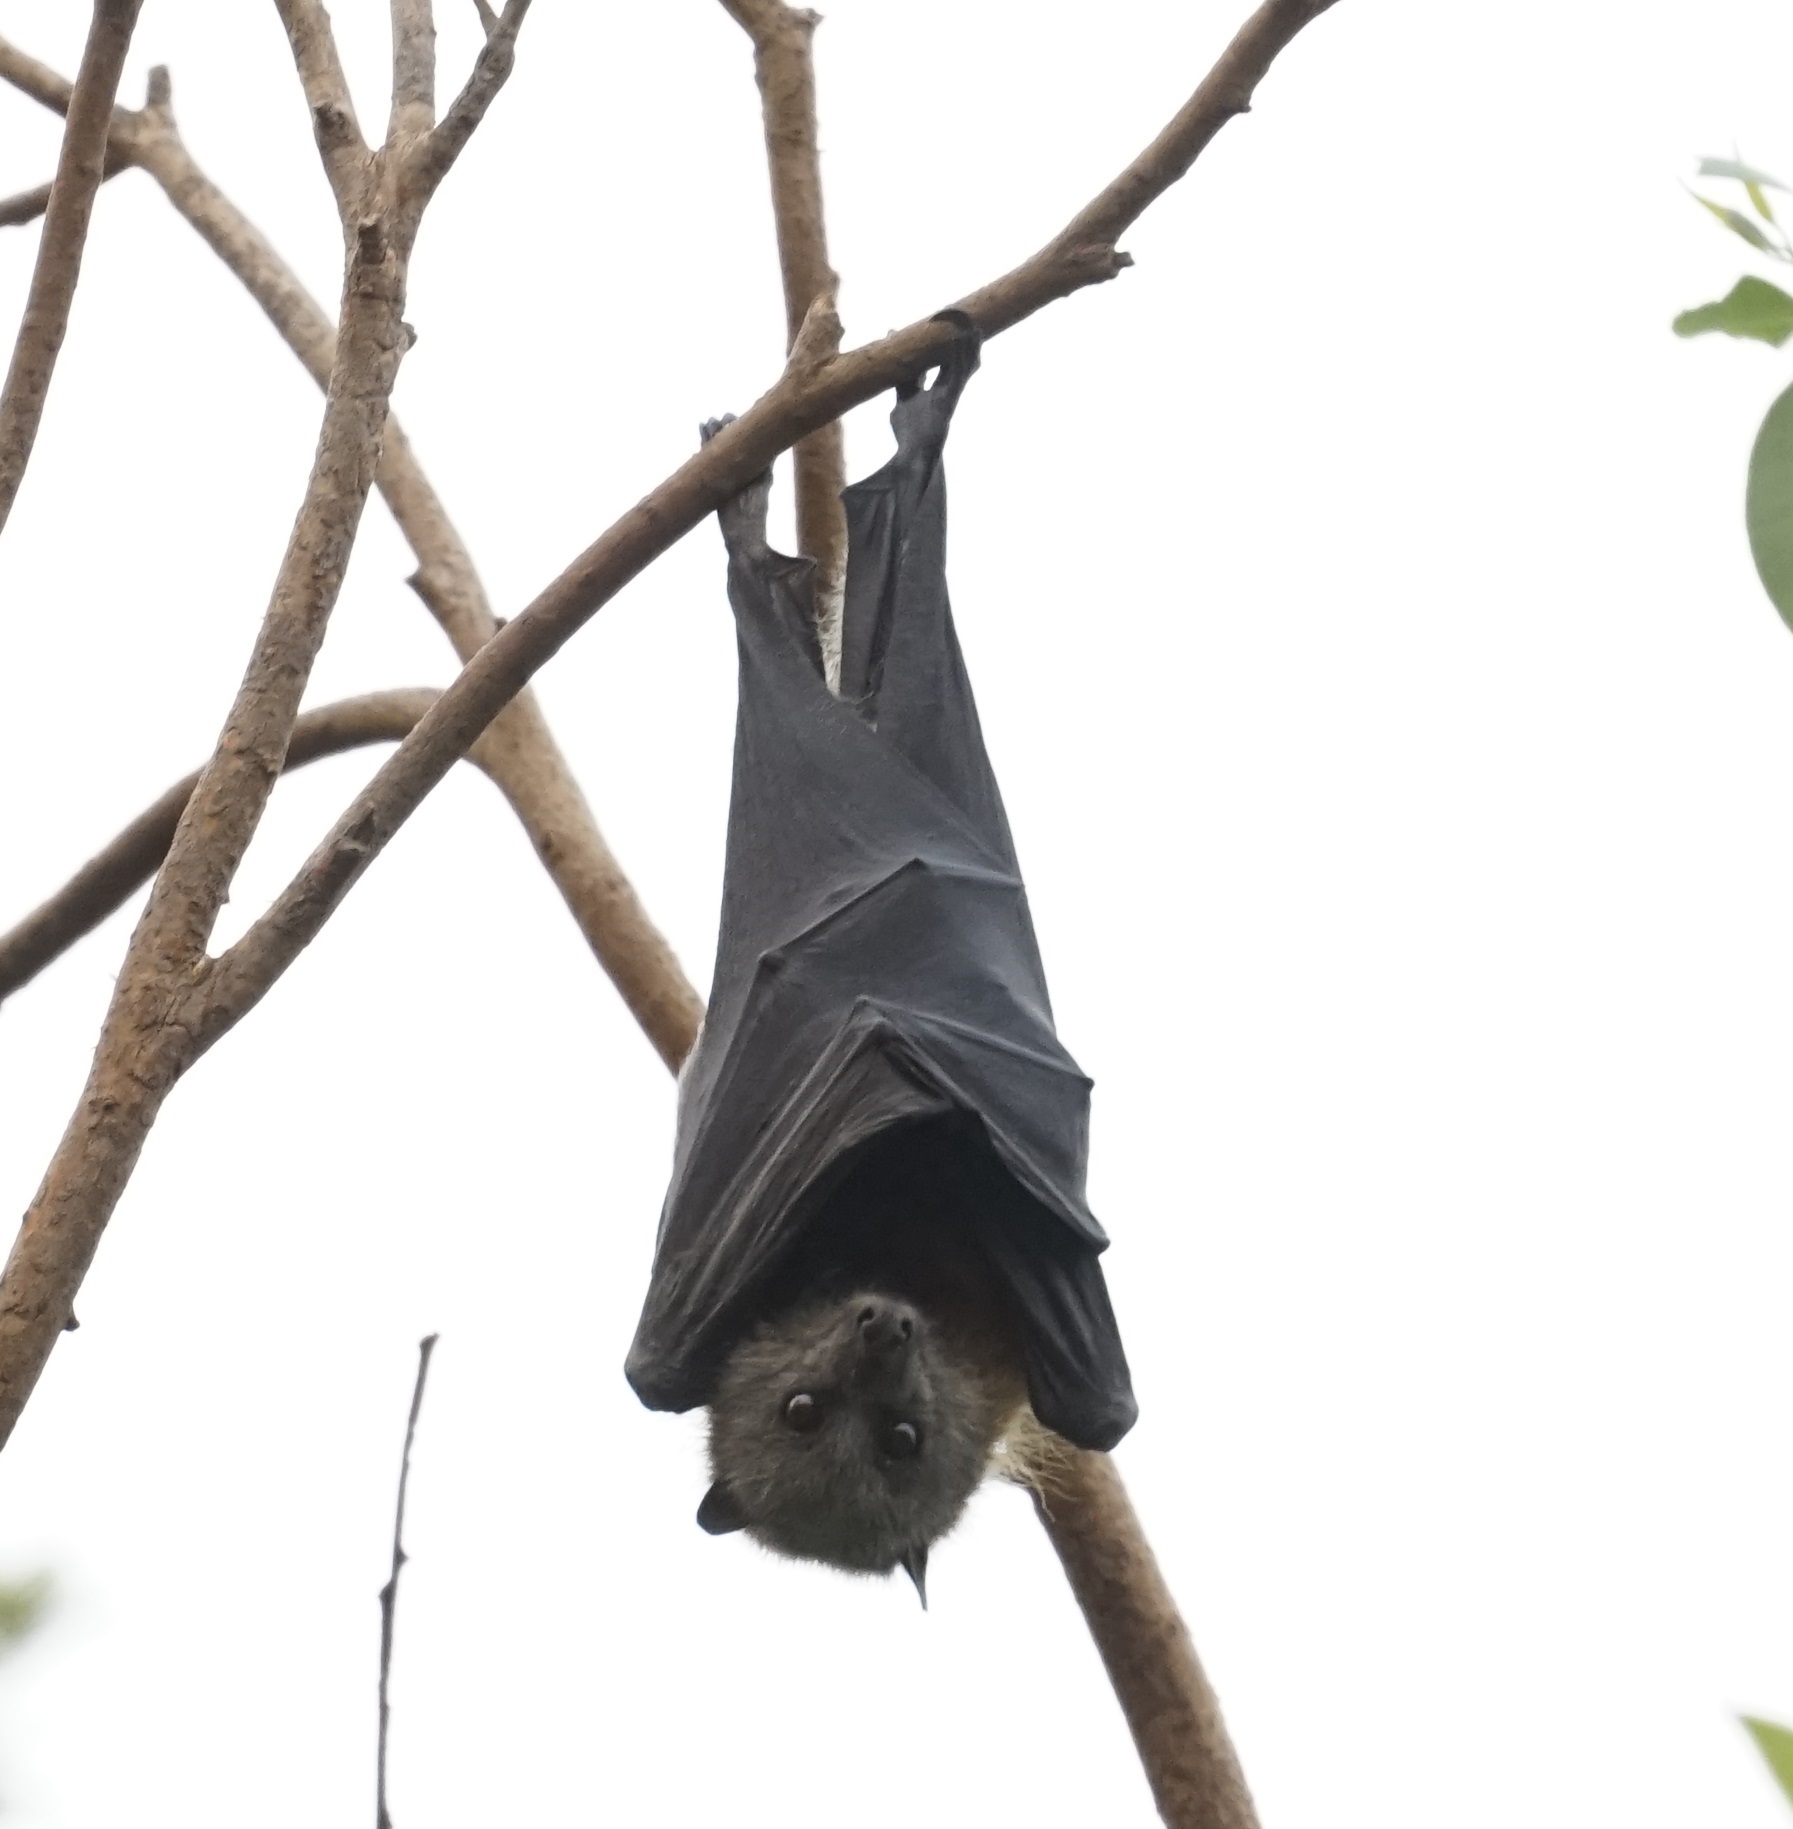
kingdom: Animalia
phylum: Chordata
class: Mammalia
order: Chiroptera
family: Pteropodidae
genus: Pteropus
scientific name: Pteropus poliocephalus
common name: Gray-headed flying fox
